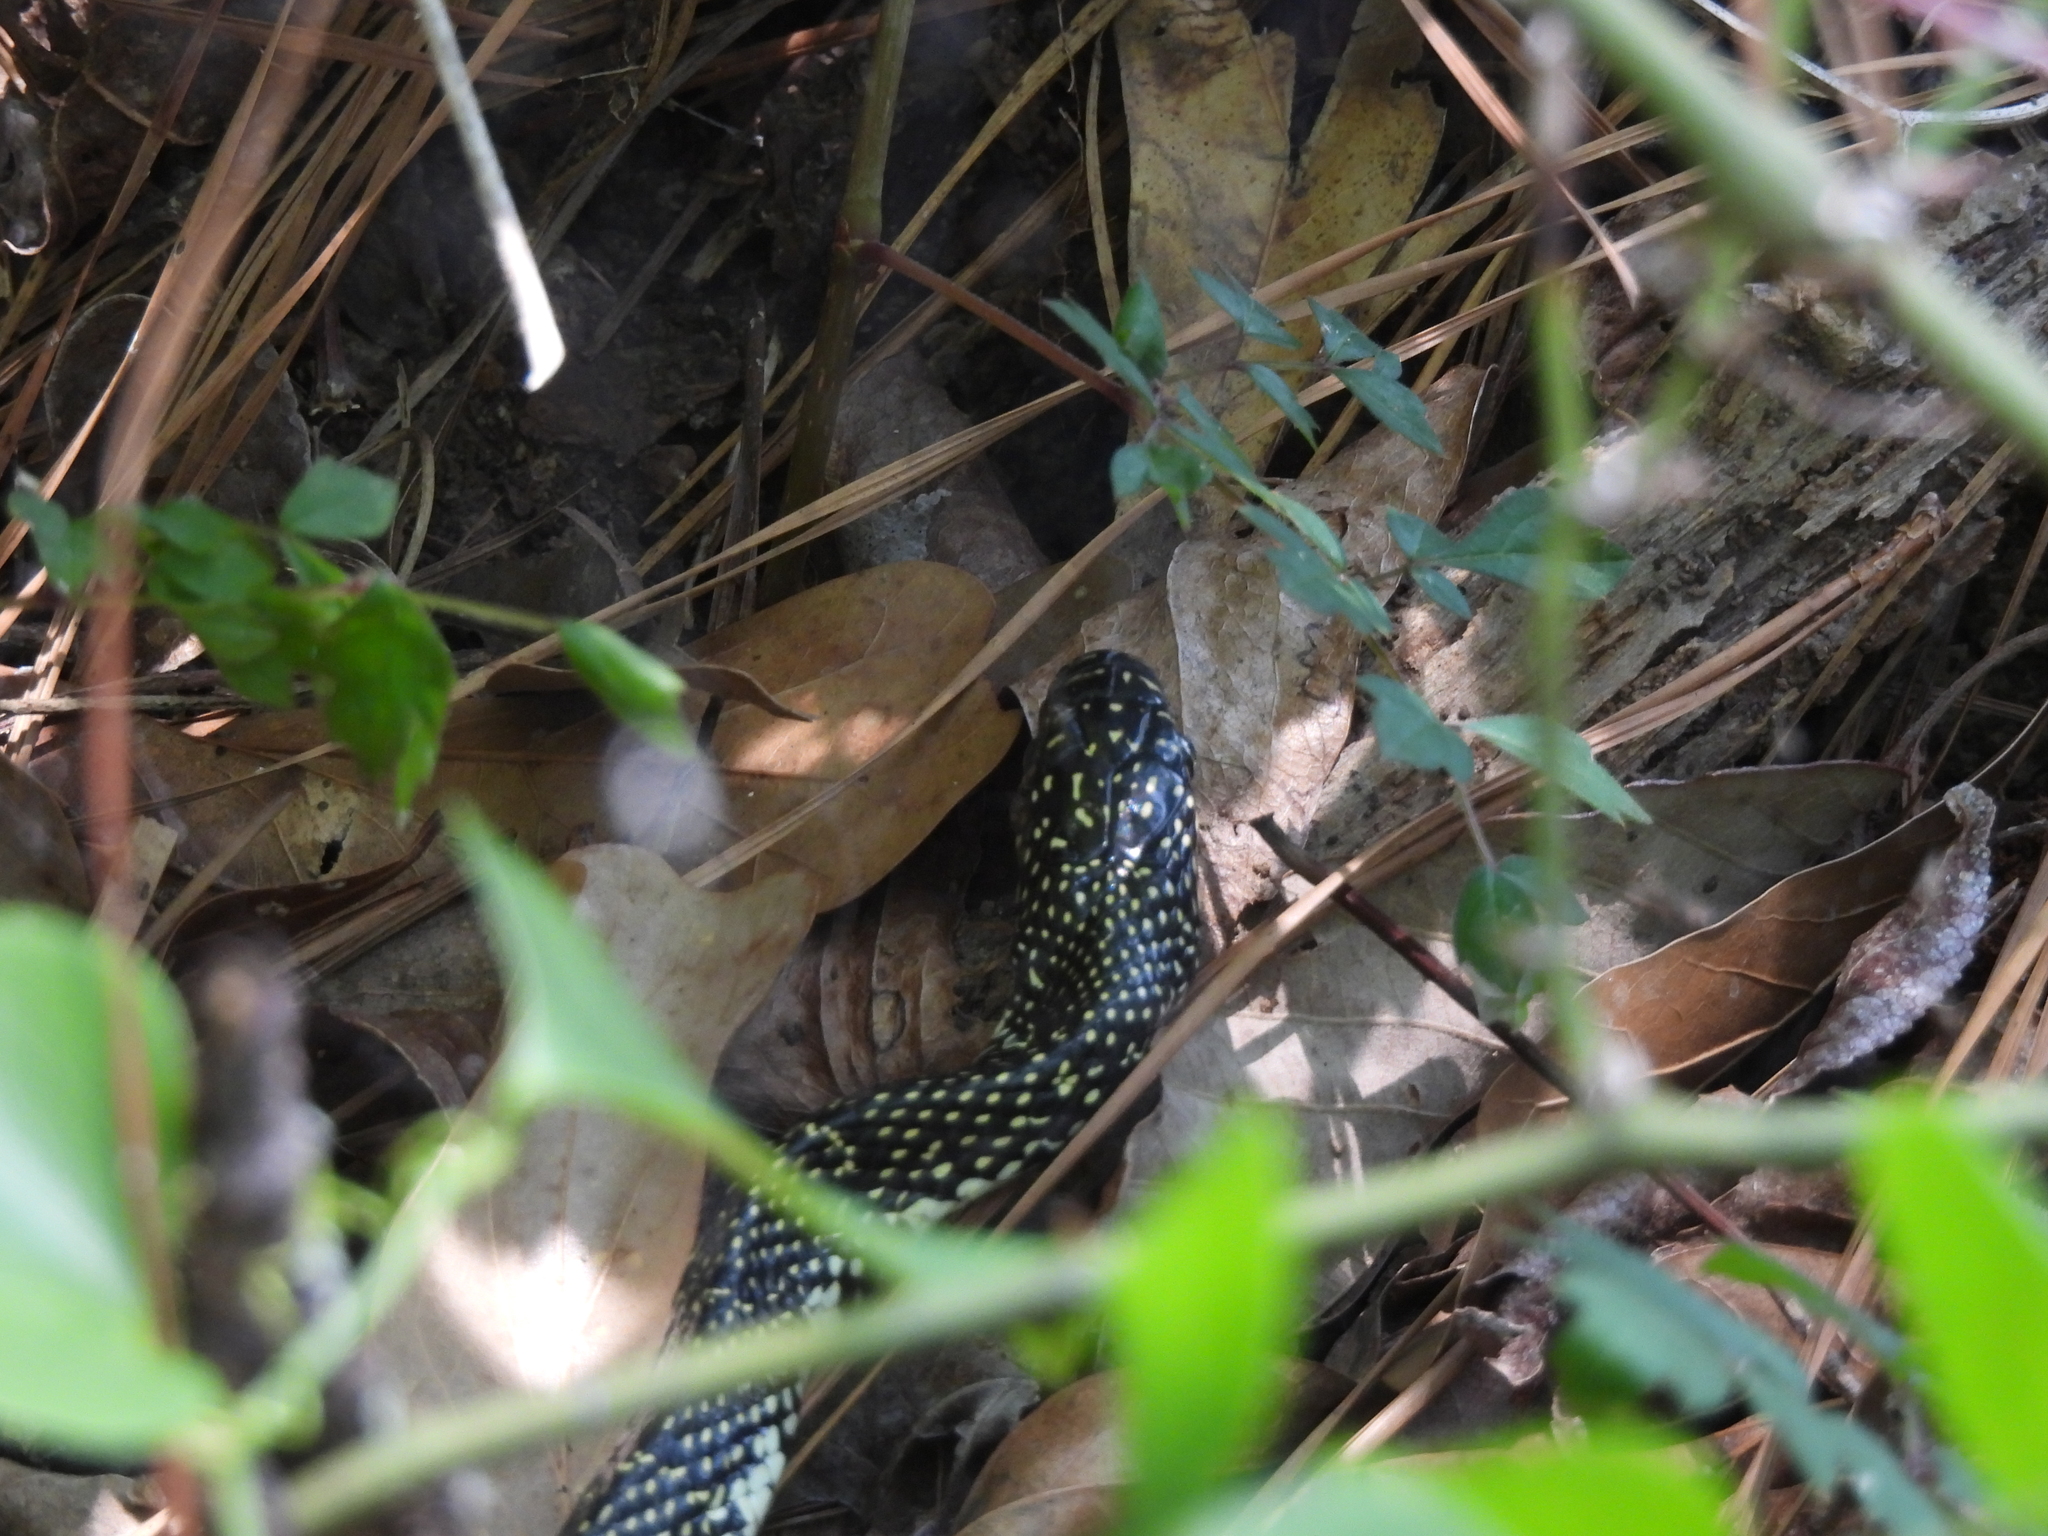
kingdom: Animalia
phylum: Chordata
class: Squamata
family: Colubridae
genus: Lampropeltis
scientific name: Lampropeltis holbrooki
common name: Speckled kingsnake
